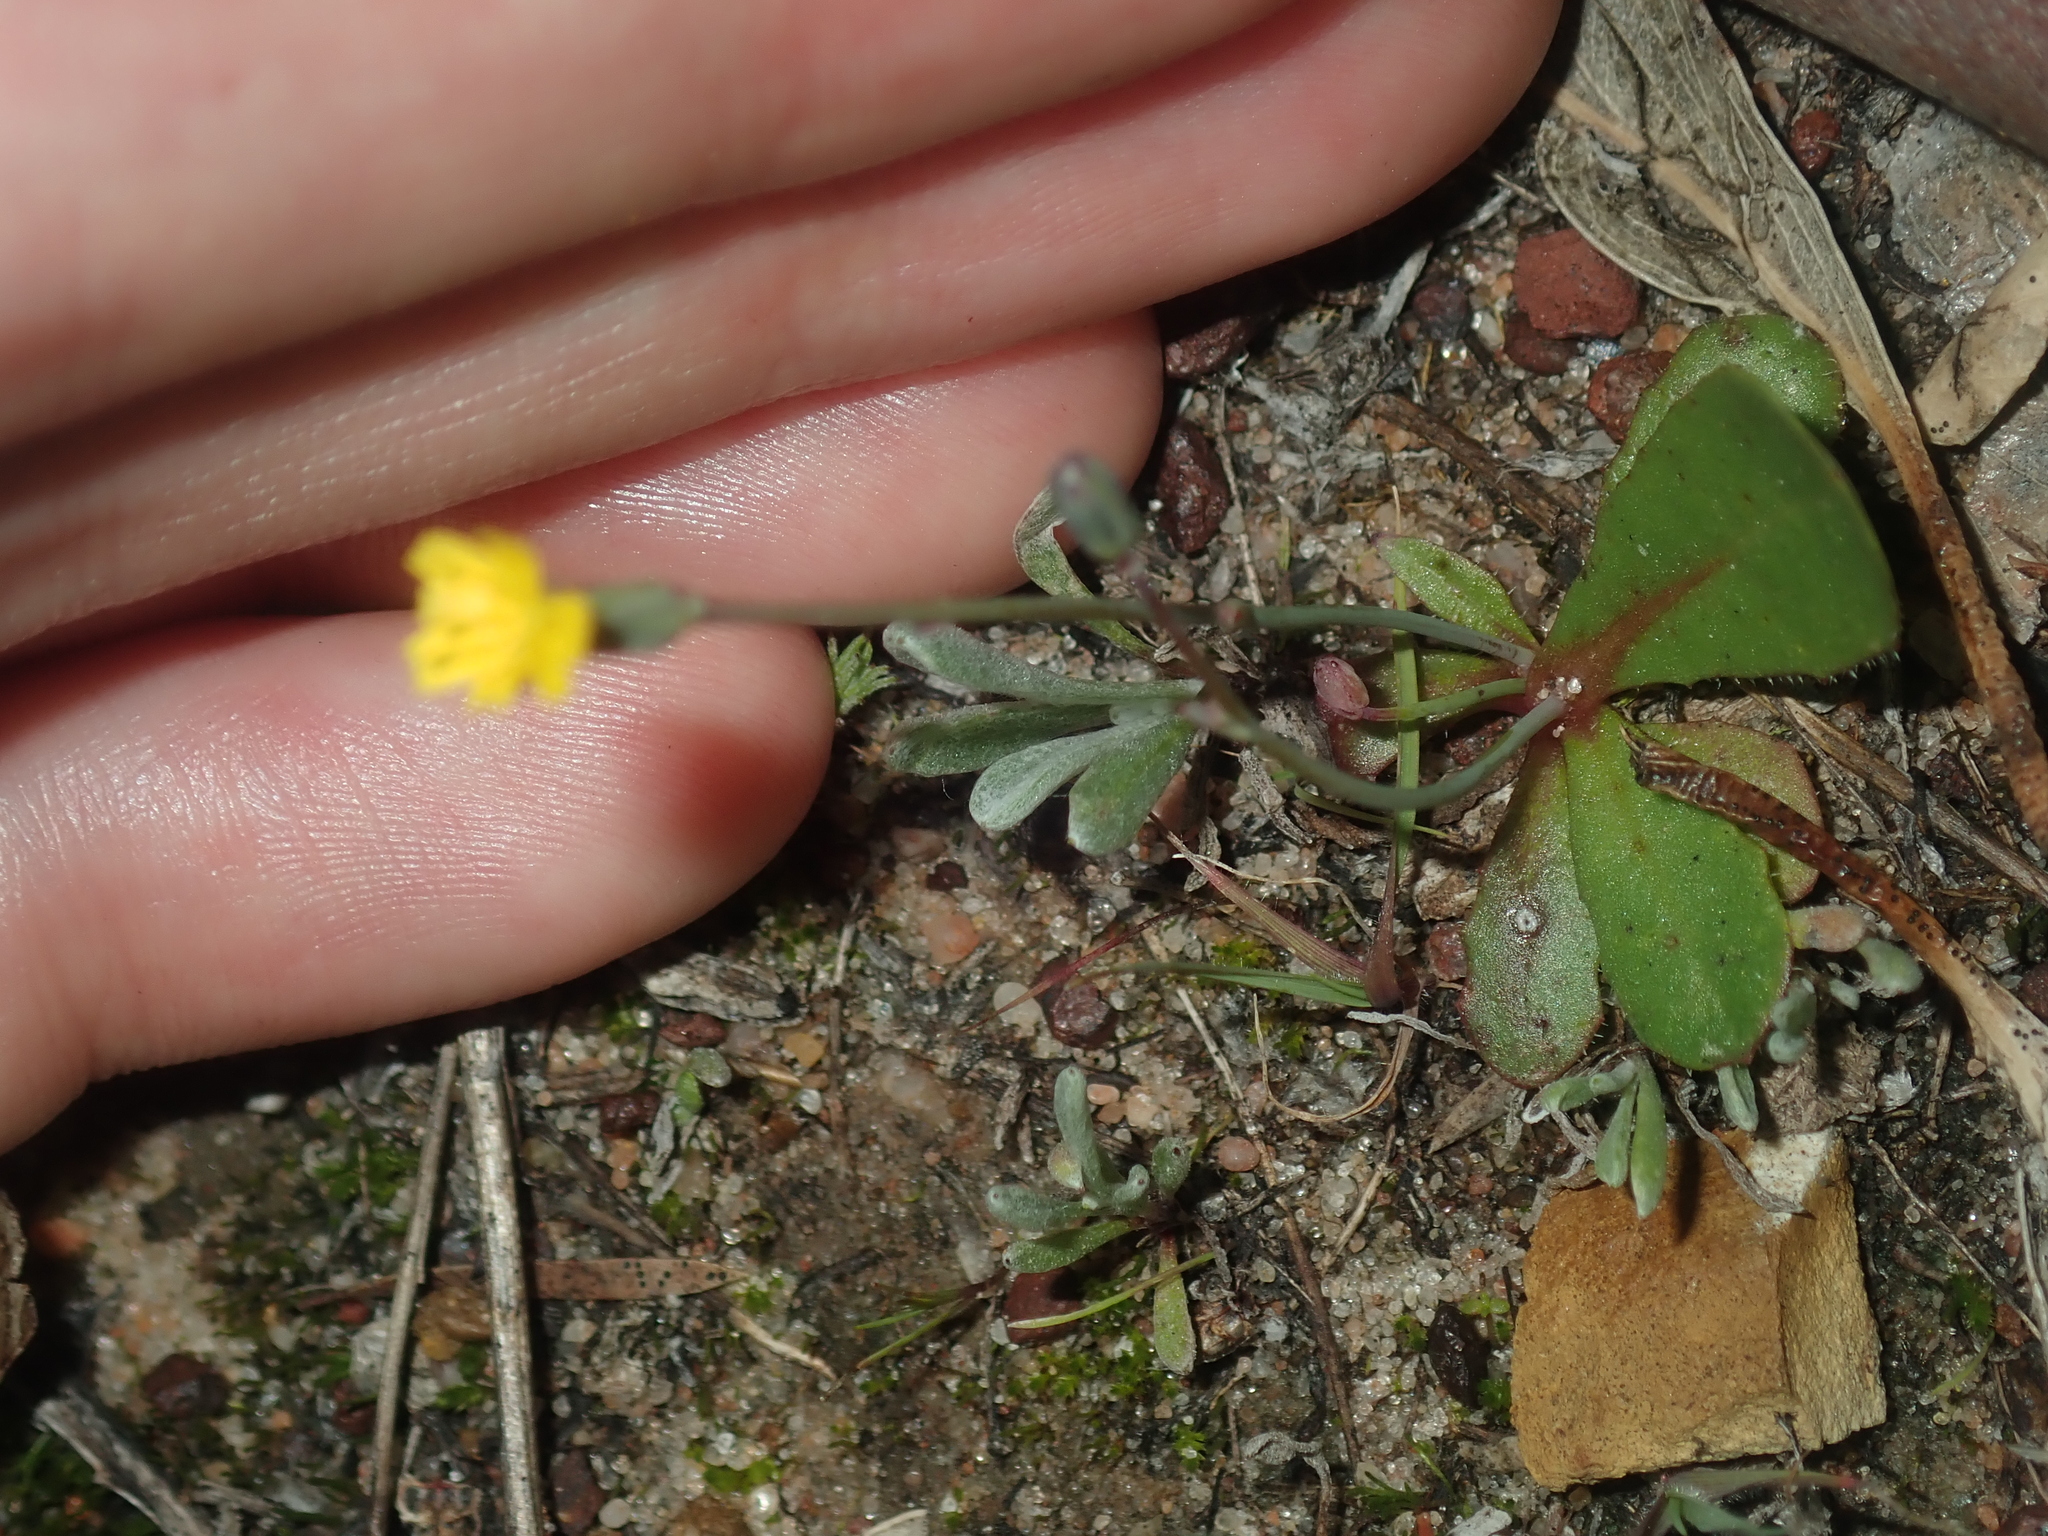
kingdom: Plantae
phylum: Tracheophyta
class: Magnoliopsida
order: Asterales
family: Asteraceae
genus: Hypochaeris
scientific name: Hypochaeris glabra
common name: Smooth catsear
